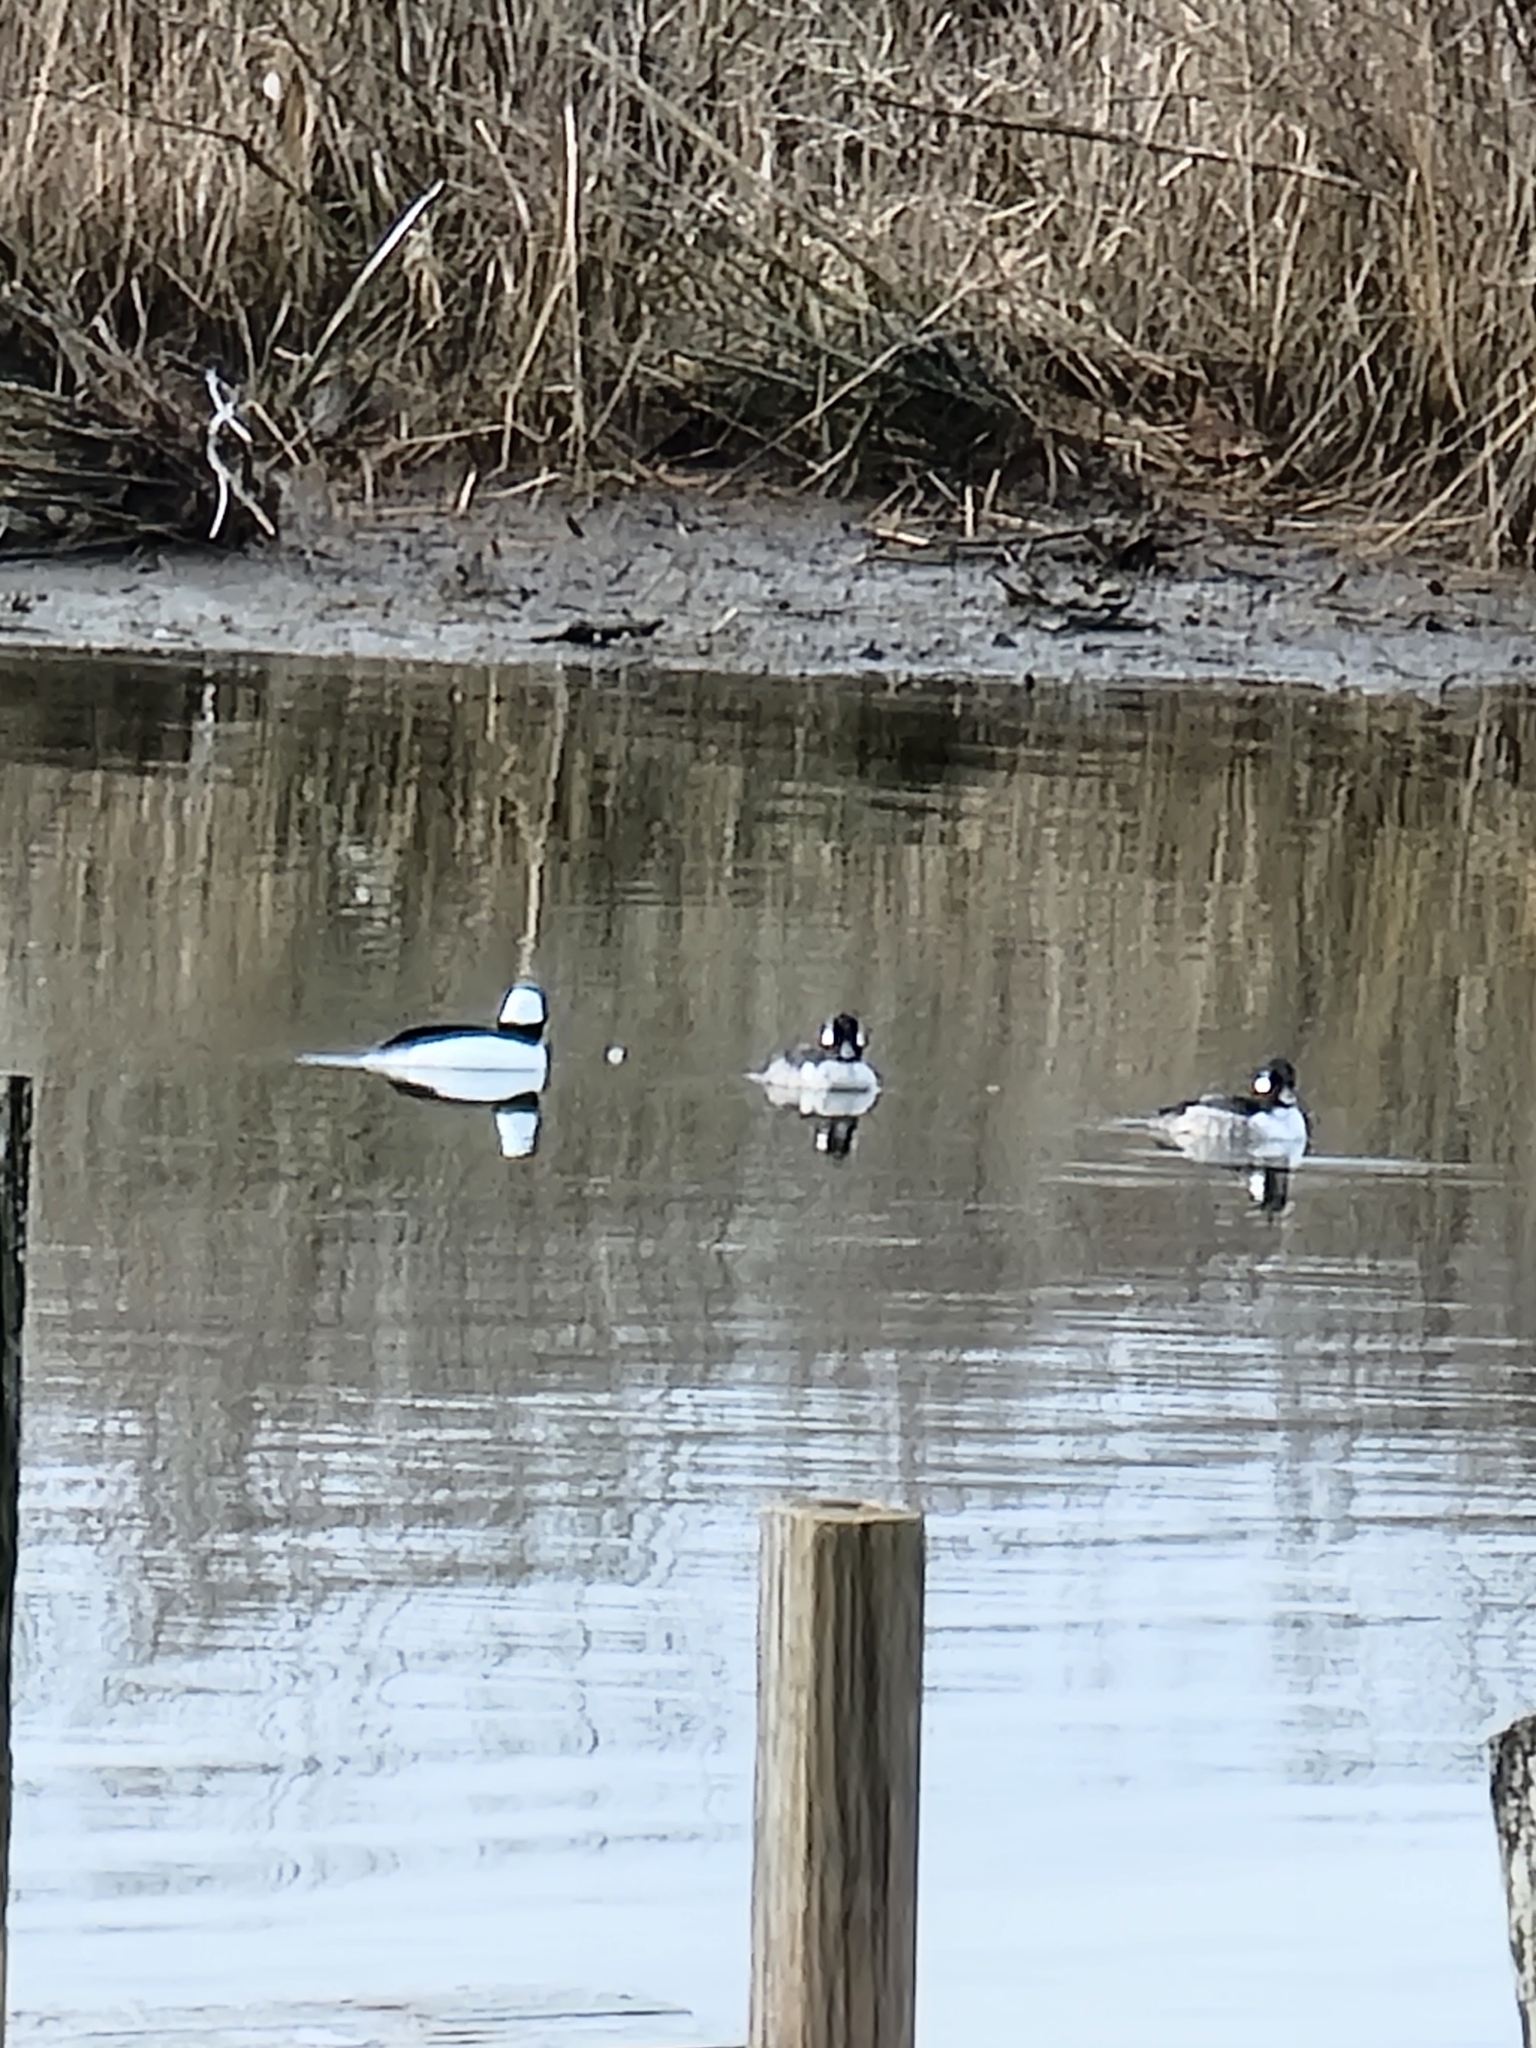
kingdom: Animalia
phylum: Chordata
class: Aves
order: Anseriformes
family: Anatidae
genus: Bucephala
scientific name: Bucephala albeola
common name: Bufflehead
